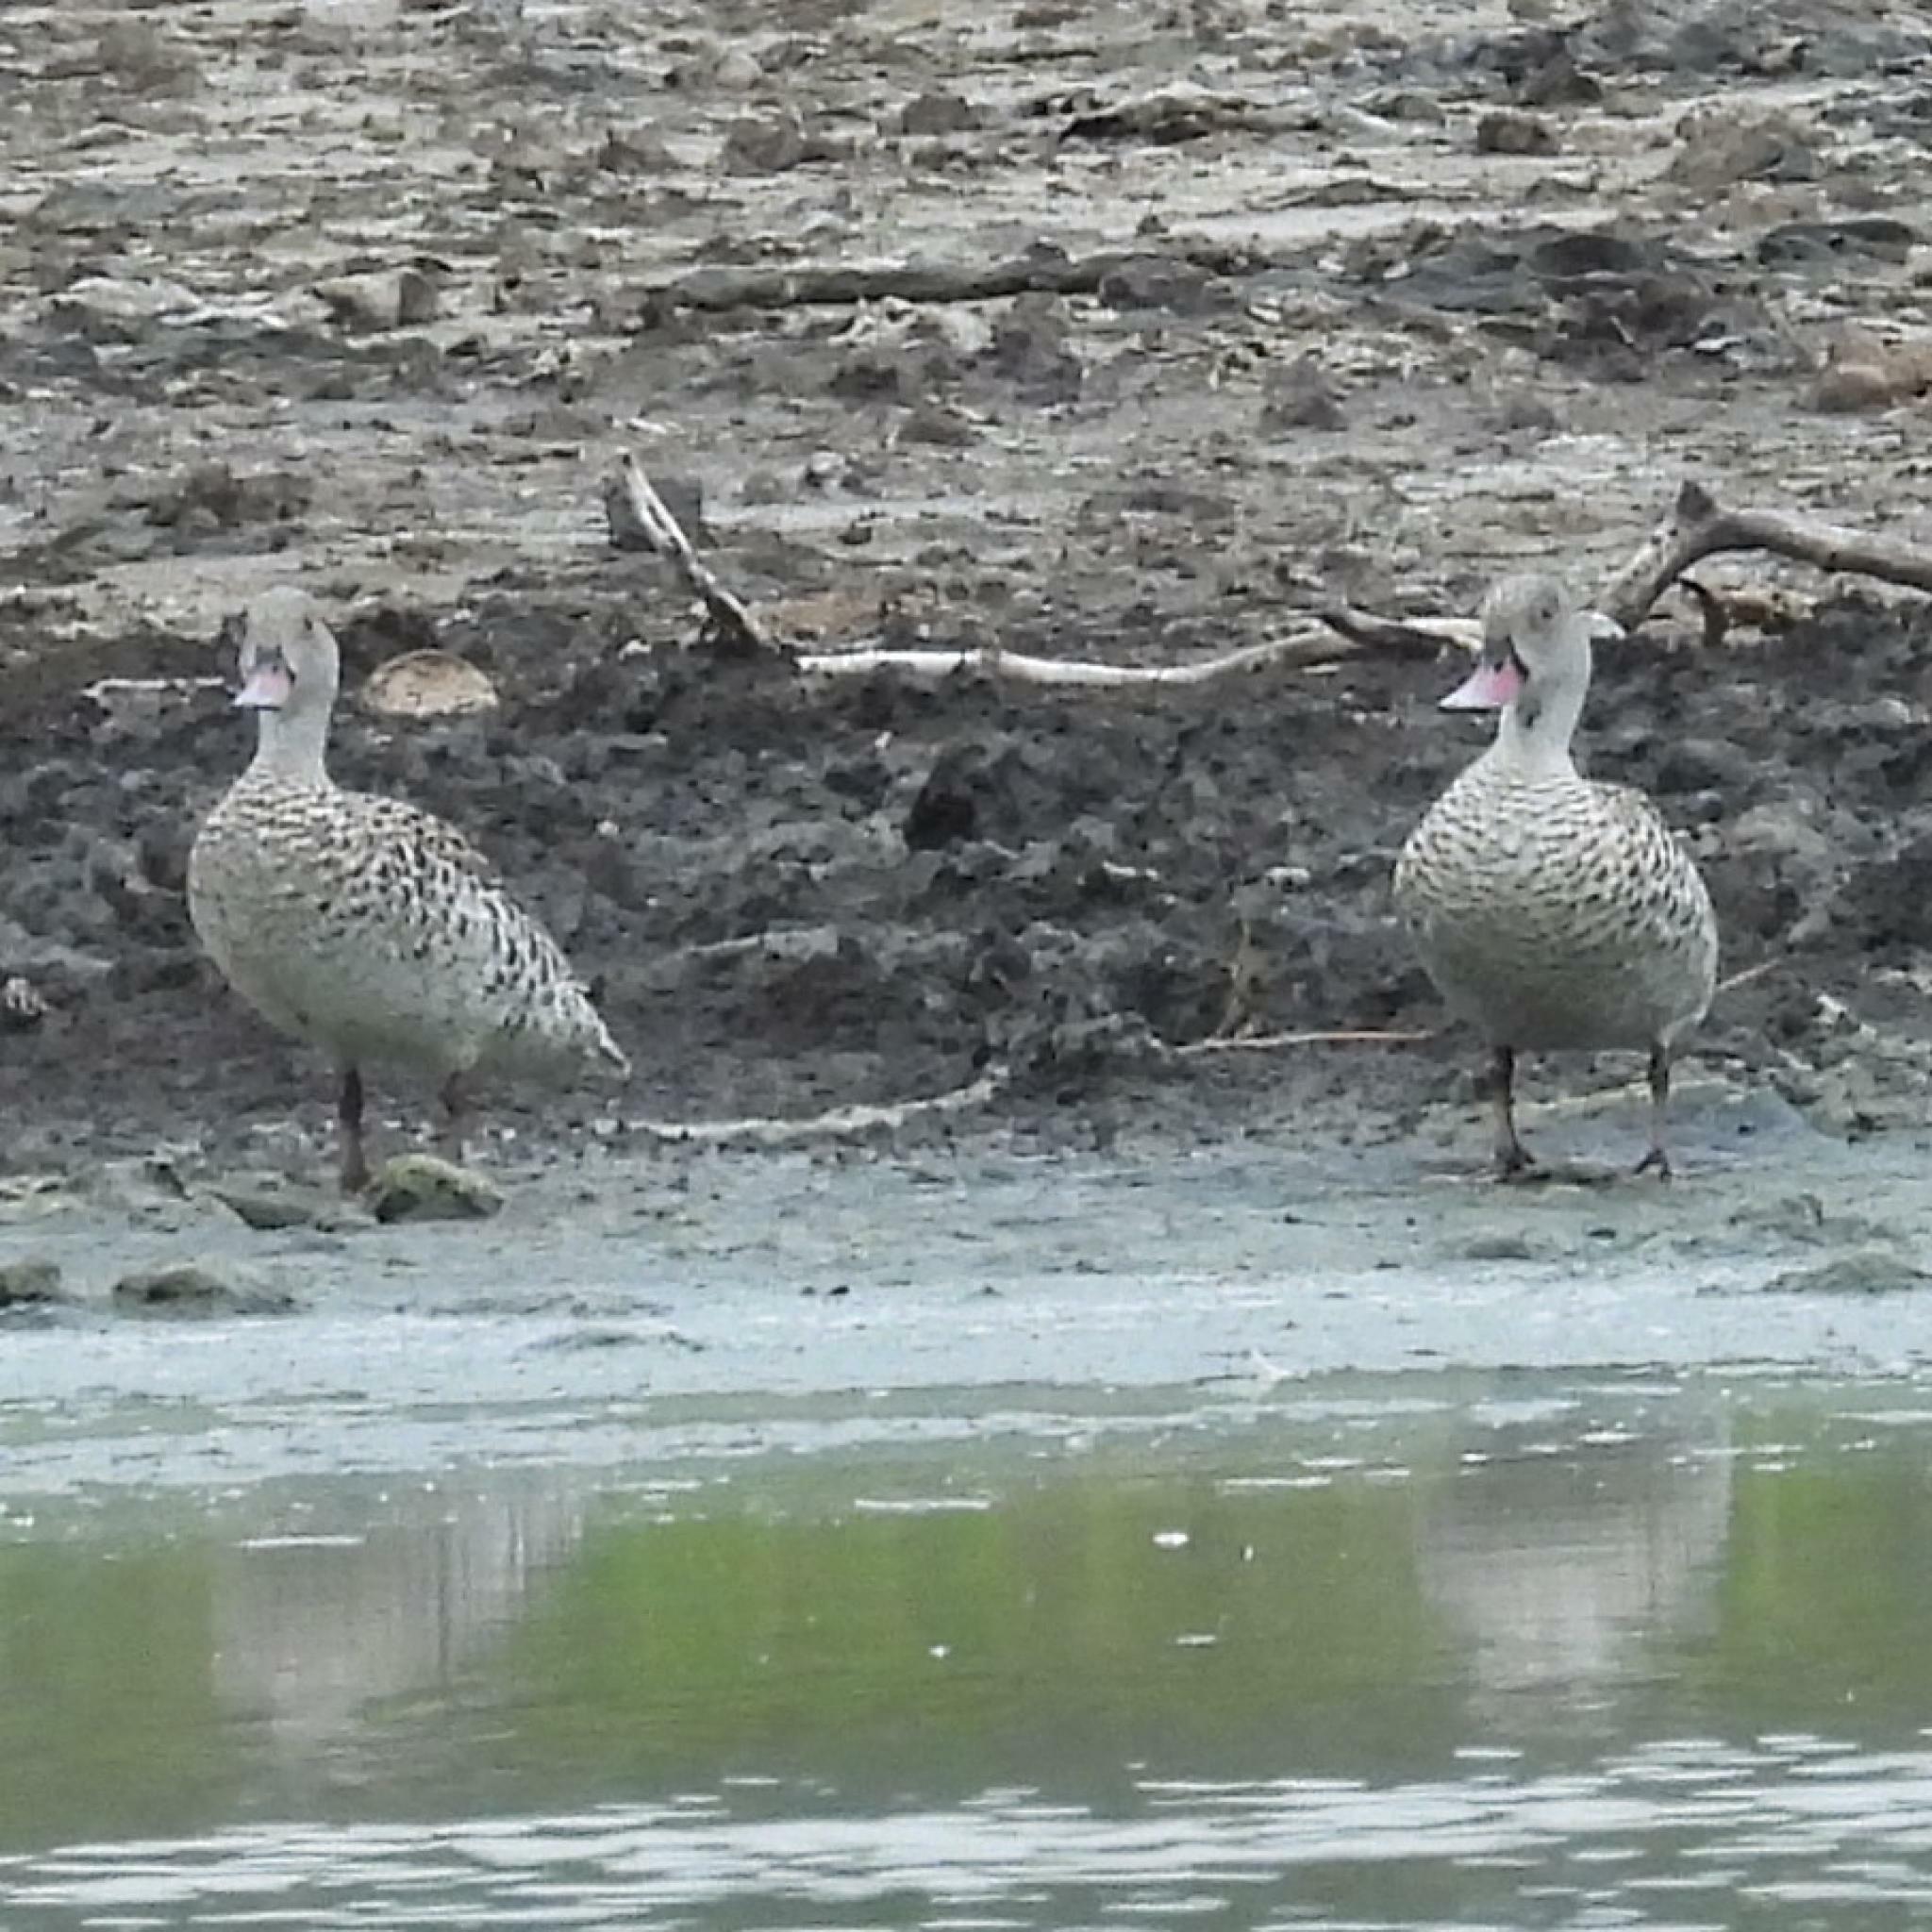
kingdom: Animalia
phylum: Chordata
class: Aves
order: Anseriformes
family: Anatidae
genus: Anas
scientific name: Anas capensis
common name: Cape teal
